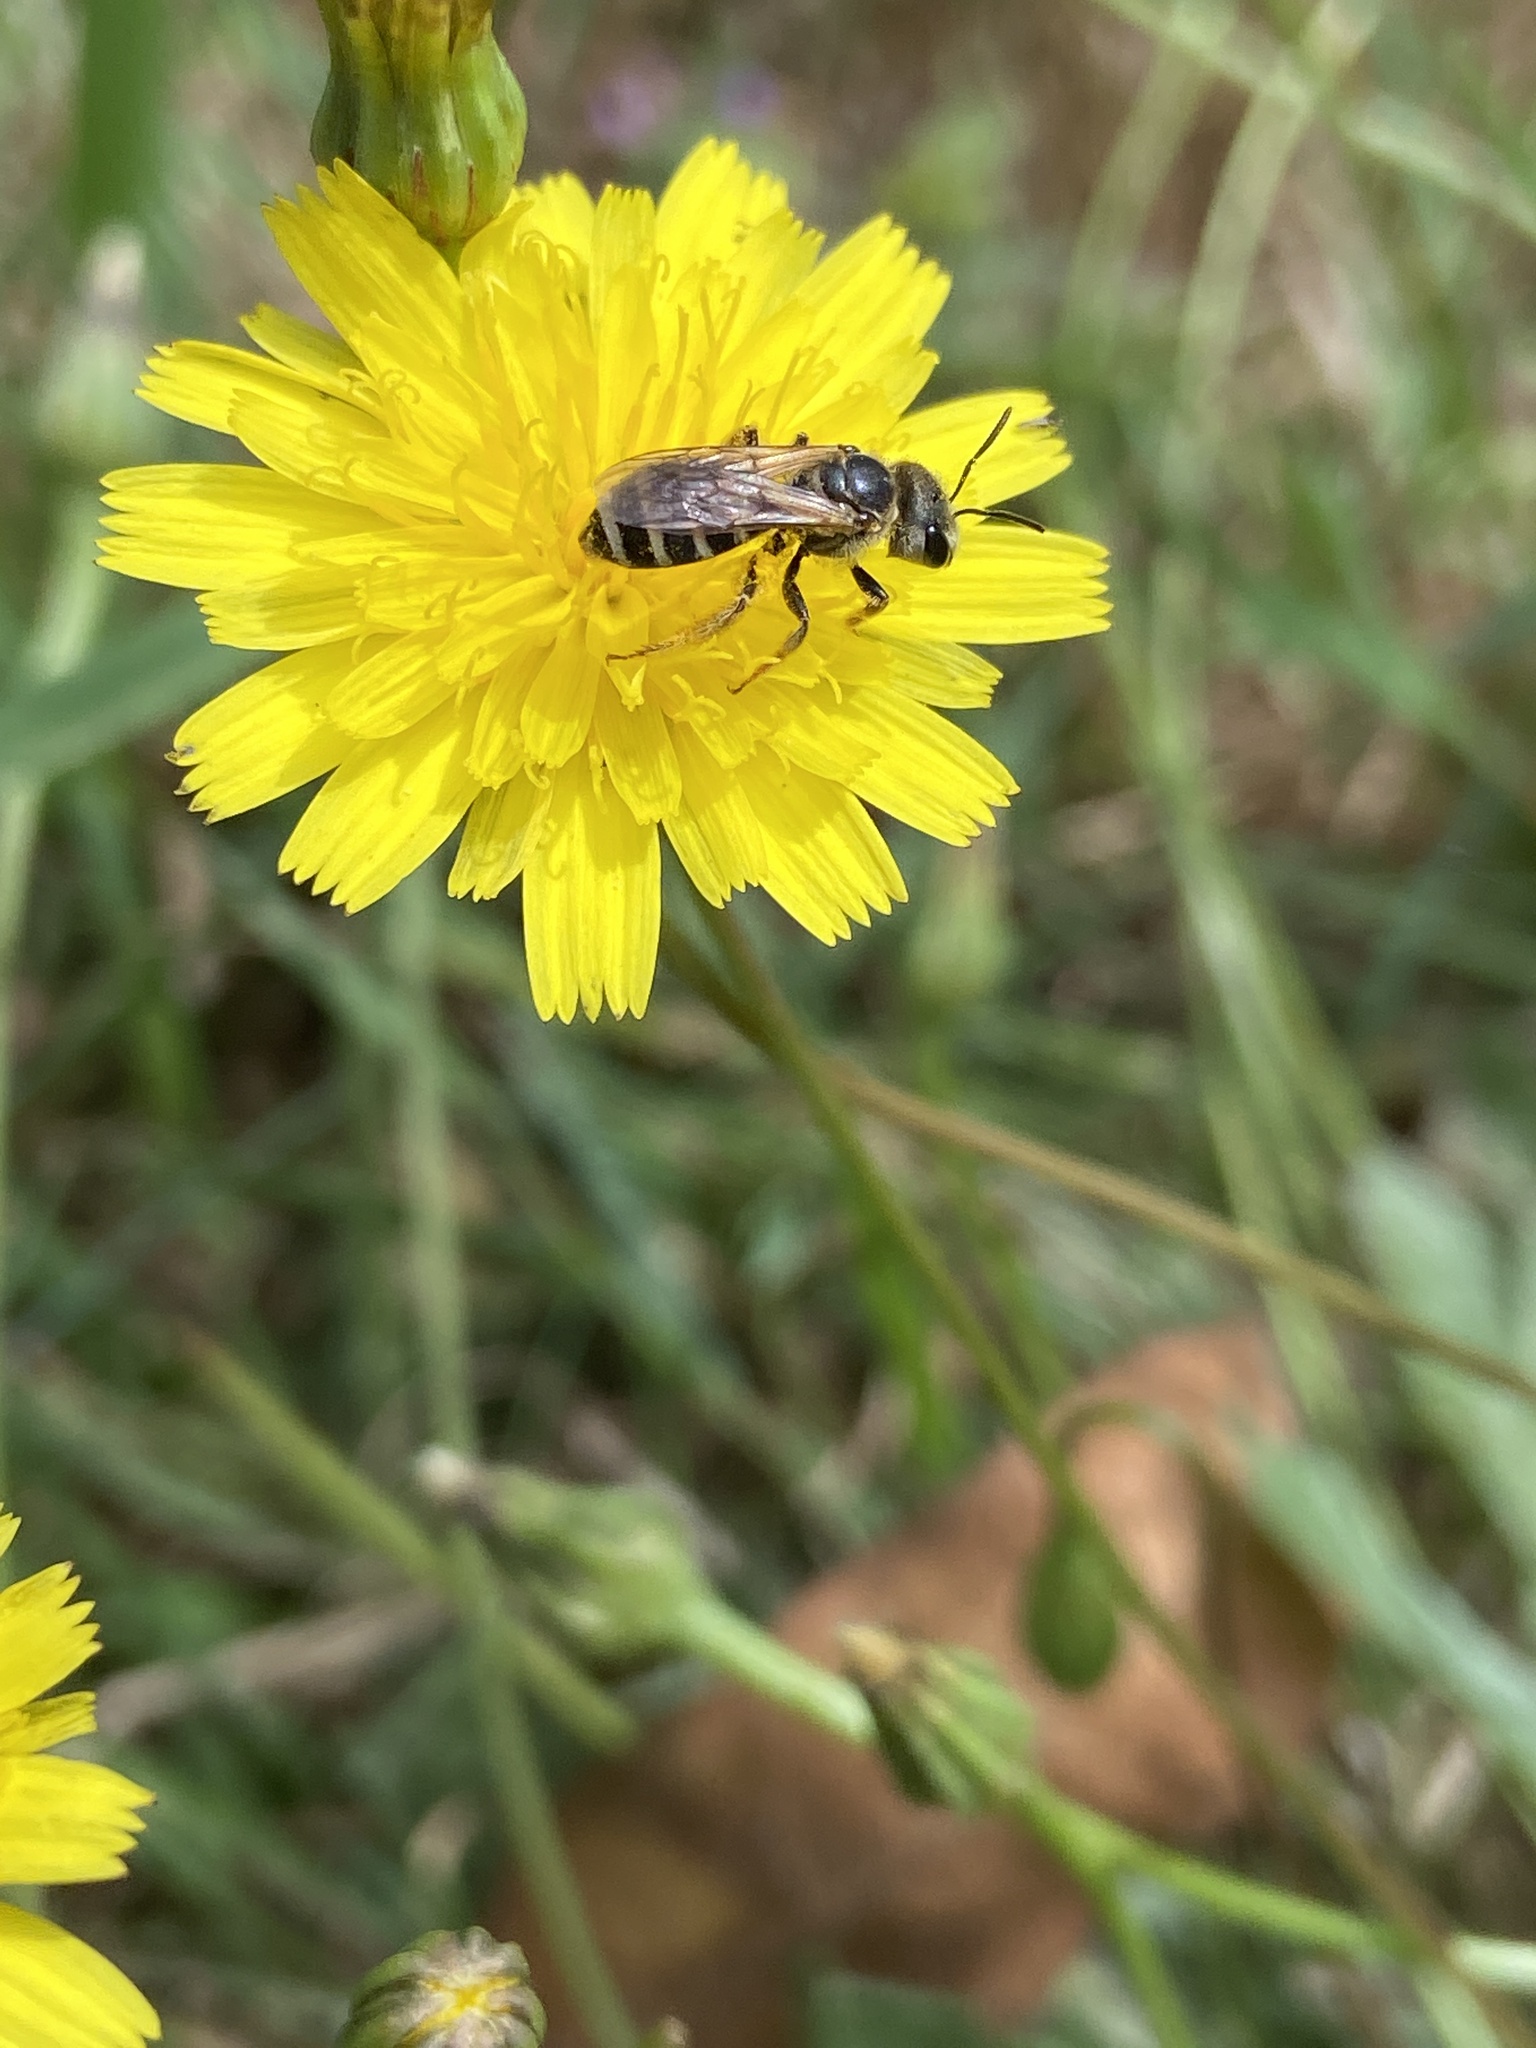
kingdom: Animalia
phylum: Arthropoda
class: Insecta
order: Hymenoptera
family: Halictidae
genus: Halictus
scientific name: Halictus ligatus
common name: Ligated furrow bee
